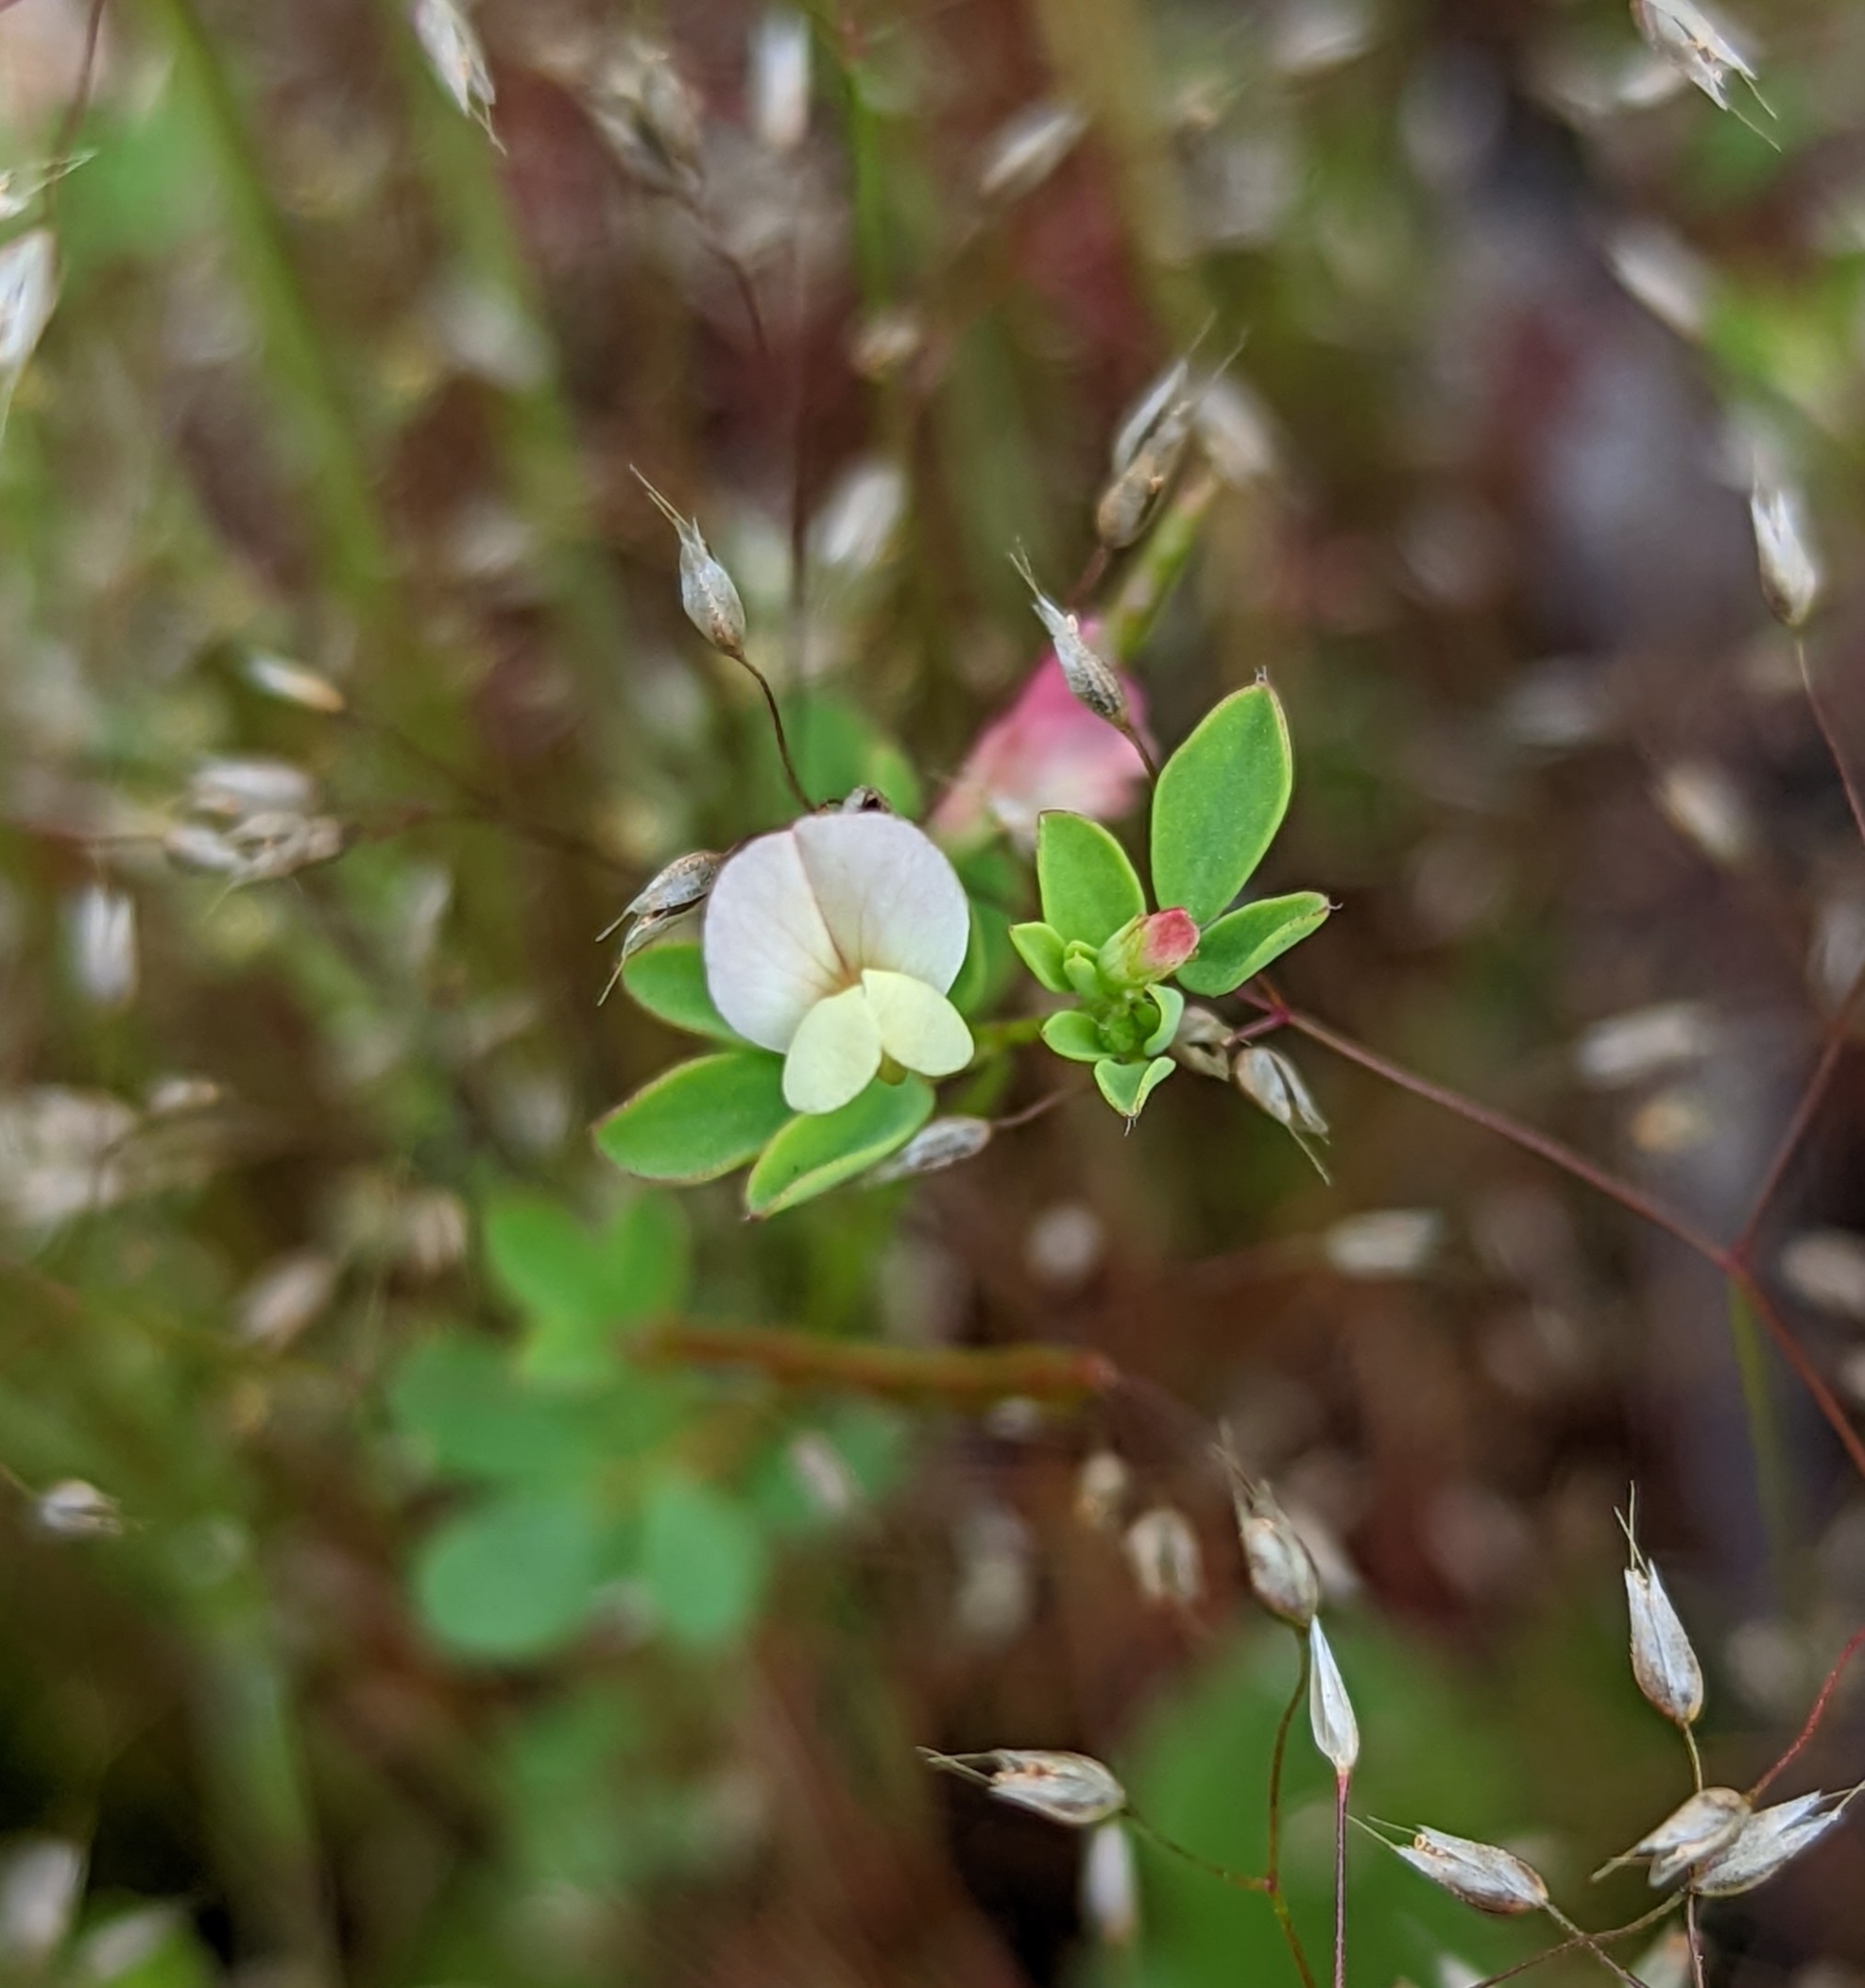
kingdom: Plantae
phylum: Tracheophyta
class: Magnoliopsida
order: Fabales
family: Fabaceae
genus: Acmispon
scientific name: Acmispon parviflorus
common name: Desert deer-vetch
